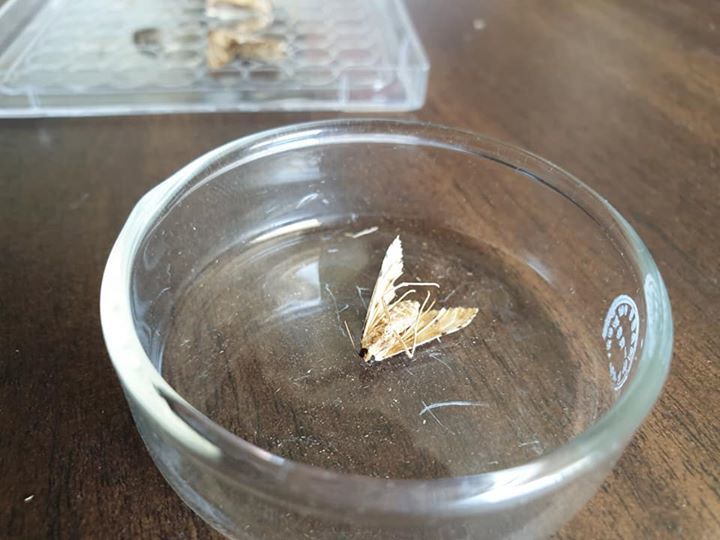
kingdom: Animalia
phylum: Arthropoda
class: Insecta
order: Lepidoptera
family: Crambidae
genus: Sceliodes
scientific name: Sceliodes cordalis
